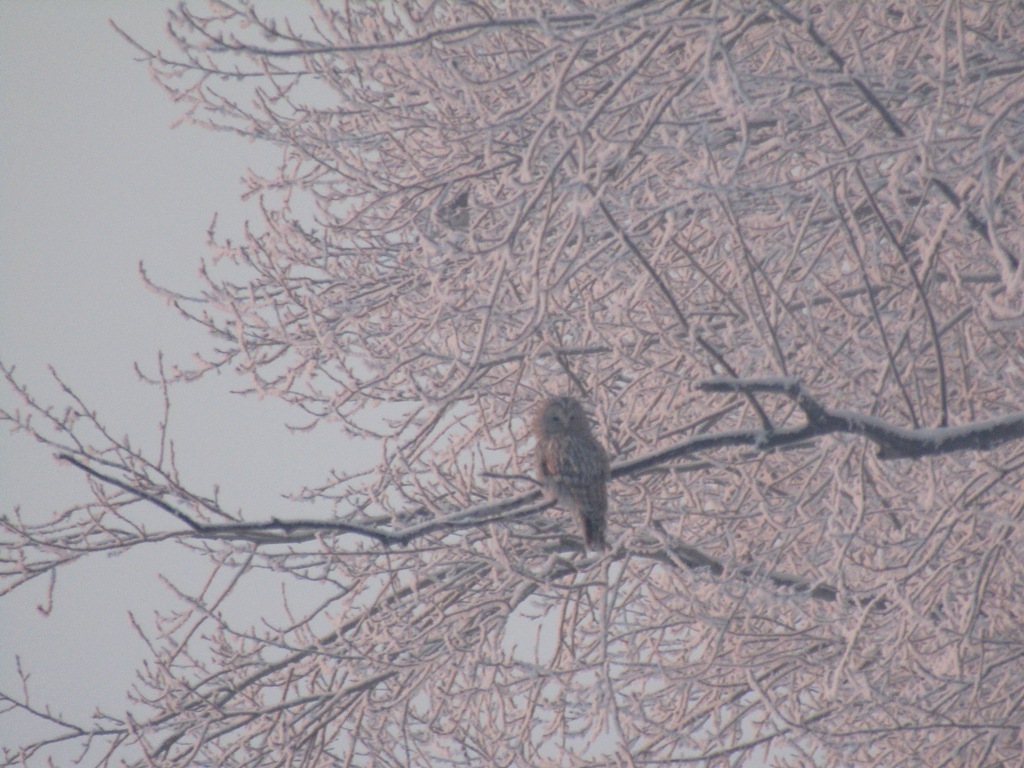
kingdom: Animalia
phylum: Chordata
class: Aves
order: Strigiformes
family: Strigidae
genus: Strix
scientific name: Strix uralensis
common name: Ural owl
